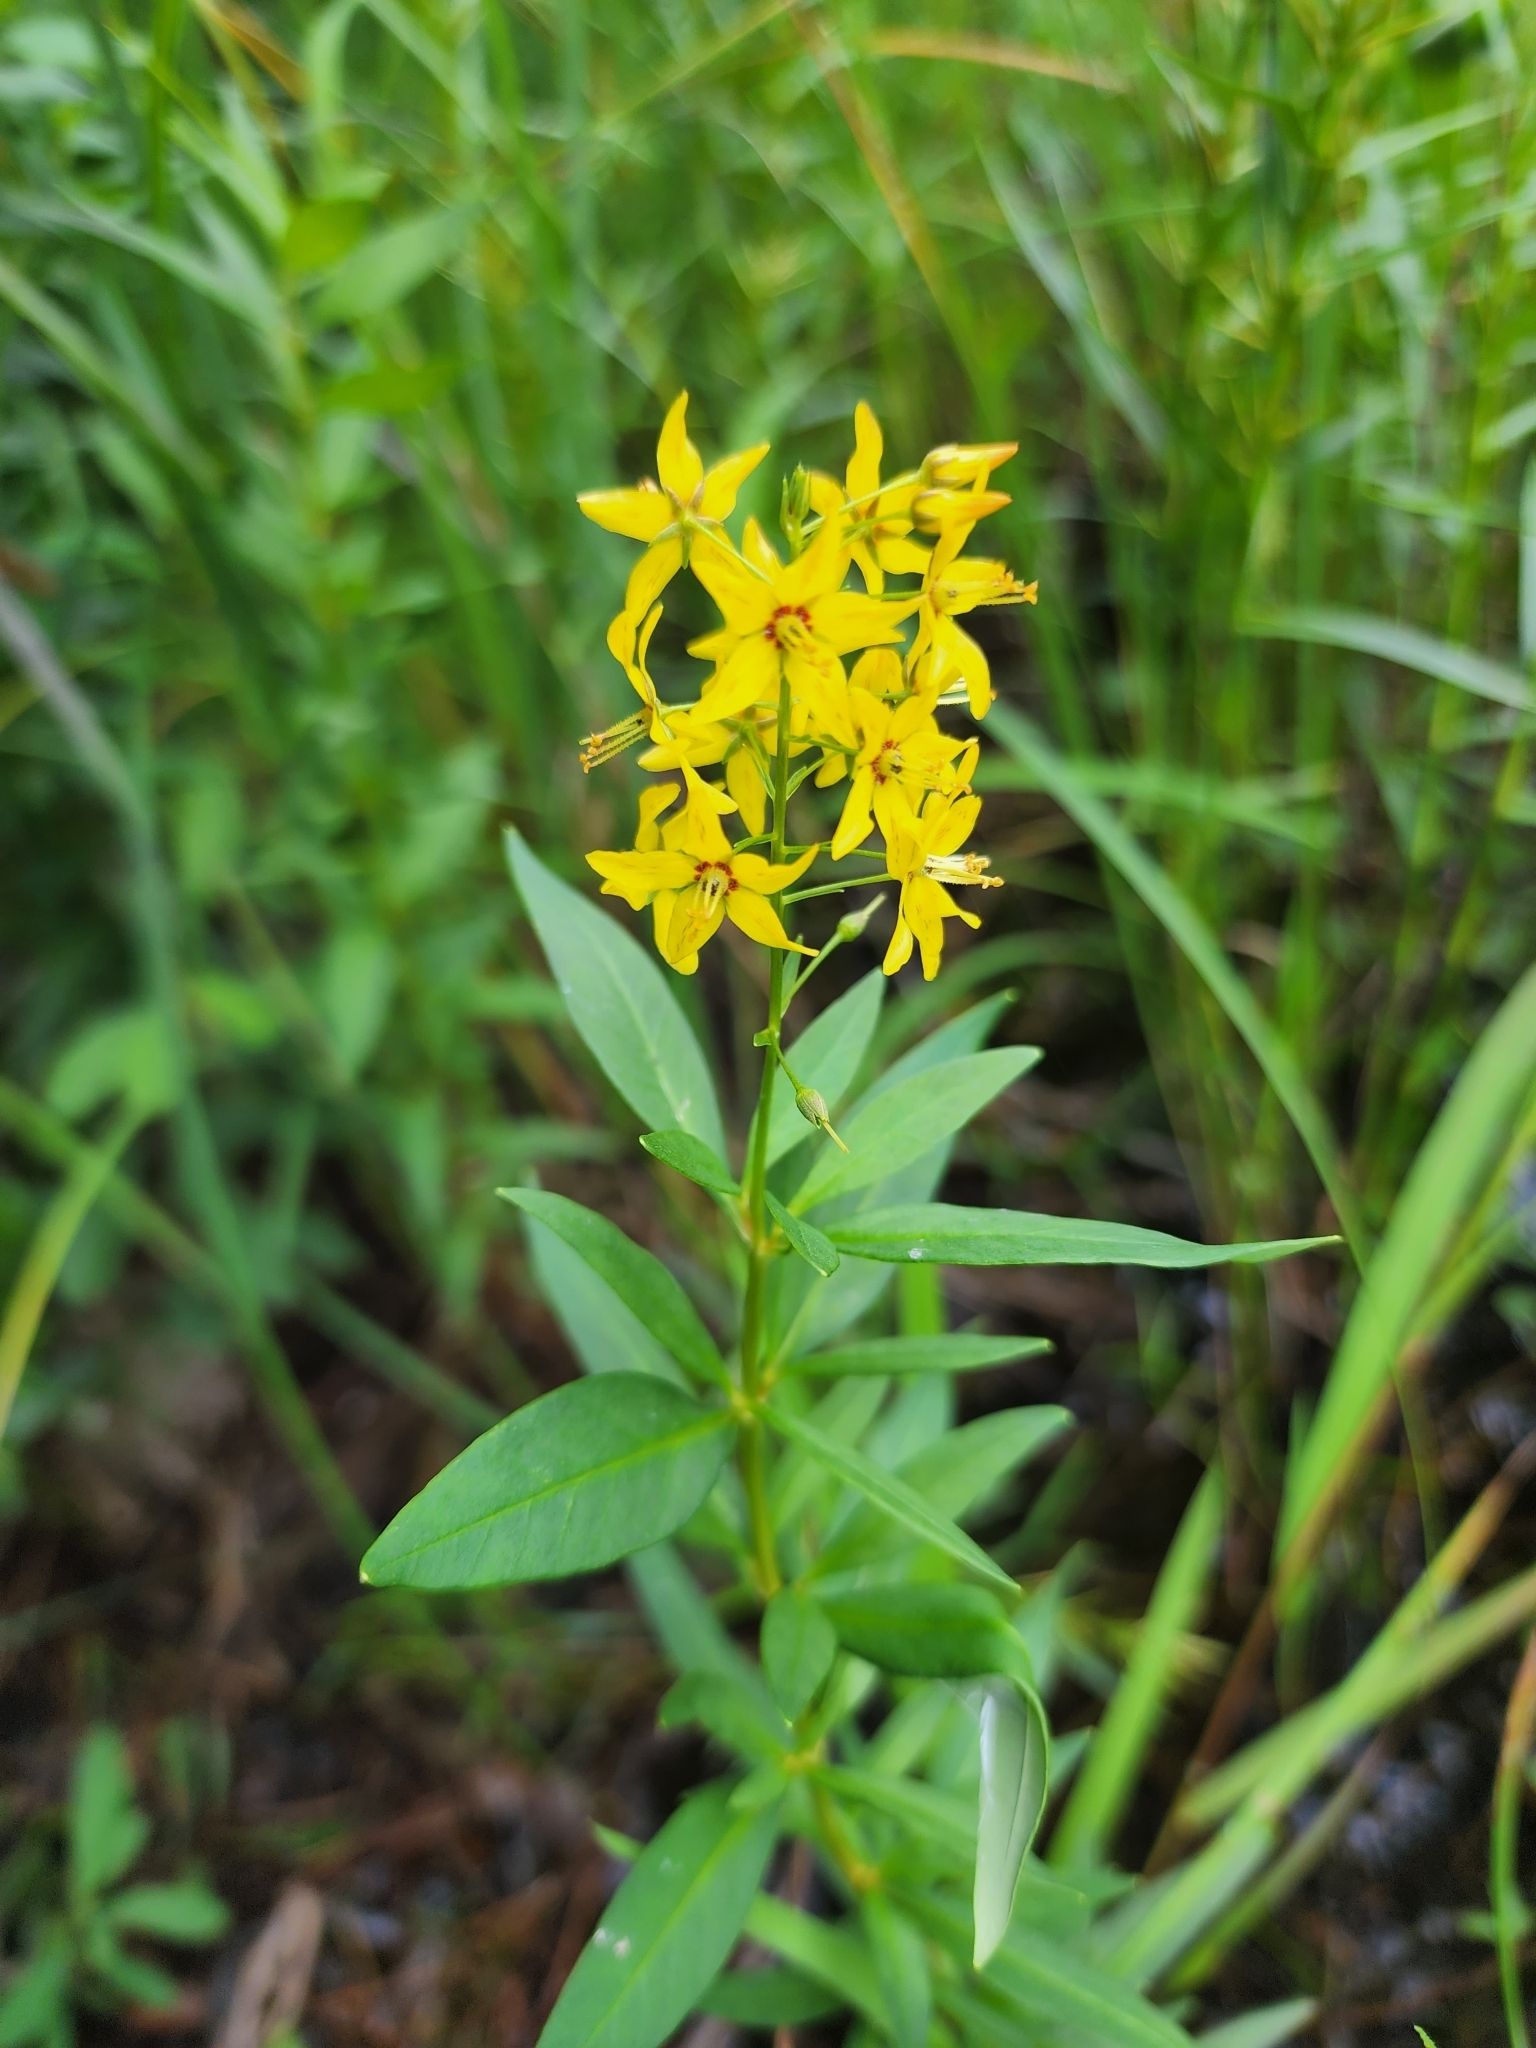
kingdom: Plantae
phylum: Tracheophyta
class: Magnoliopsida
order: Ericales
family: Primulaceae
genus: Lysimachia
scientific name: Lysimachia terrestris
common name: Lake loosestrife
